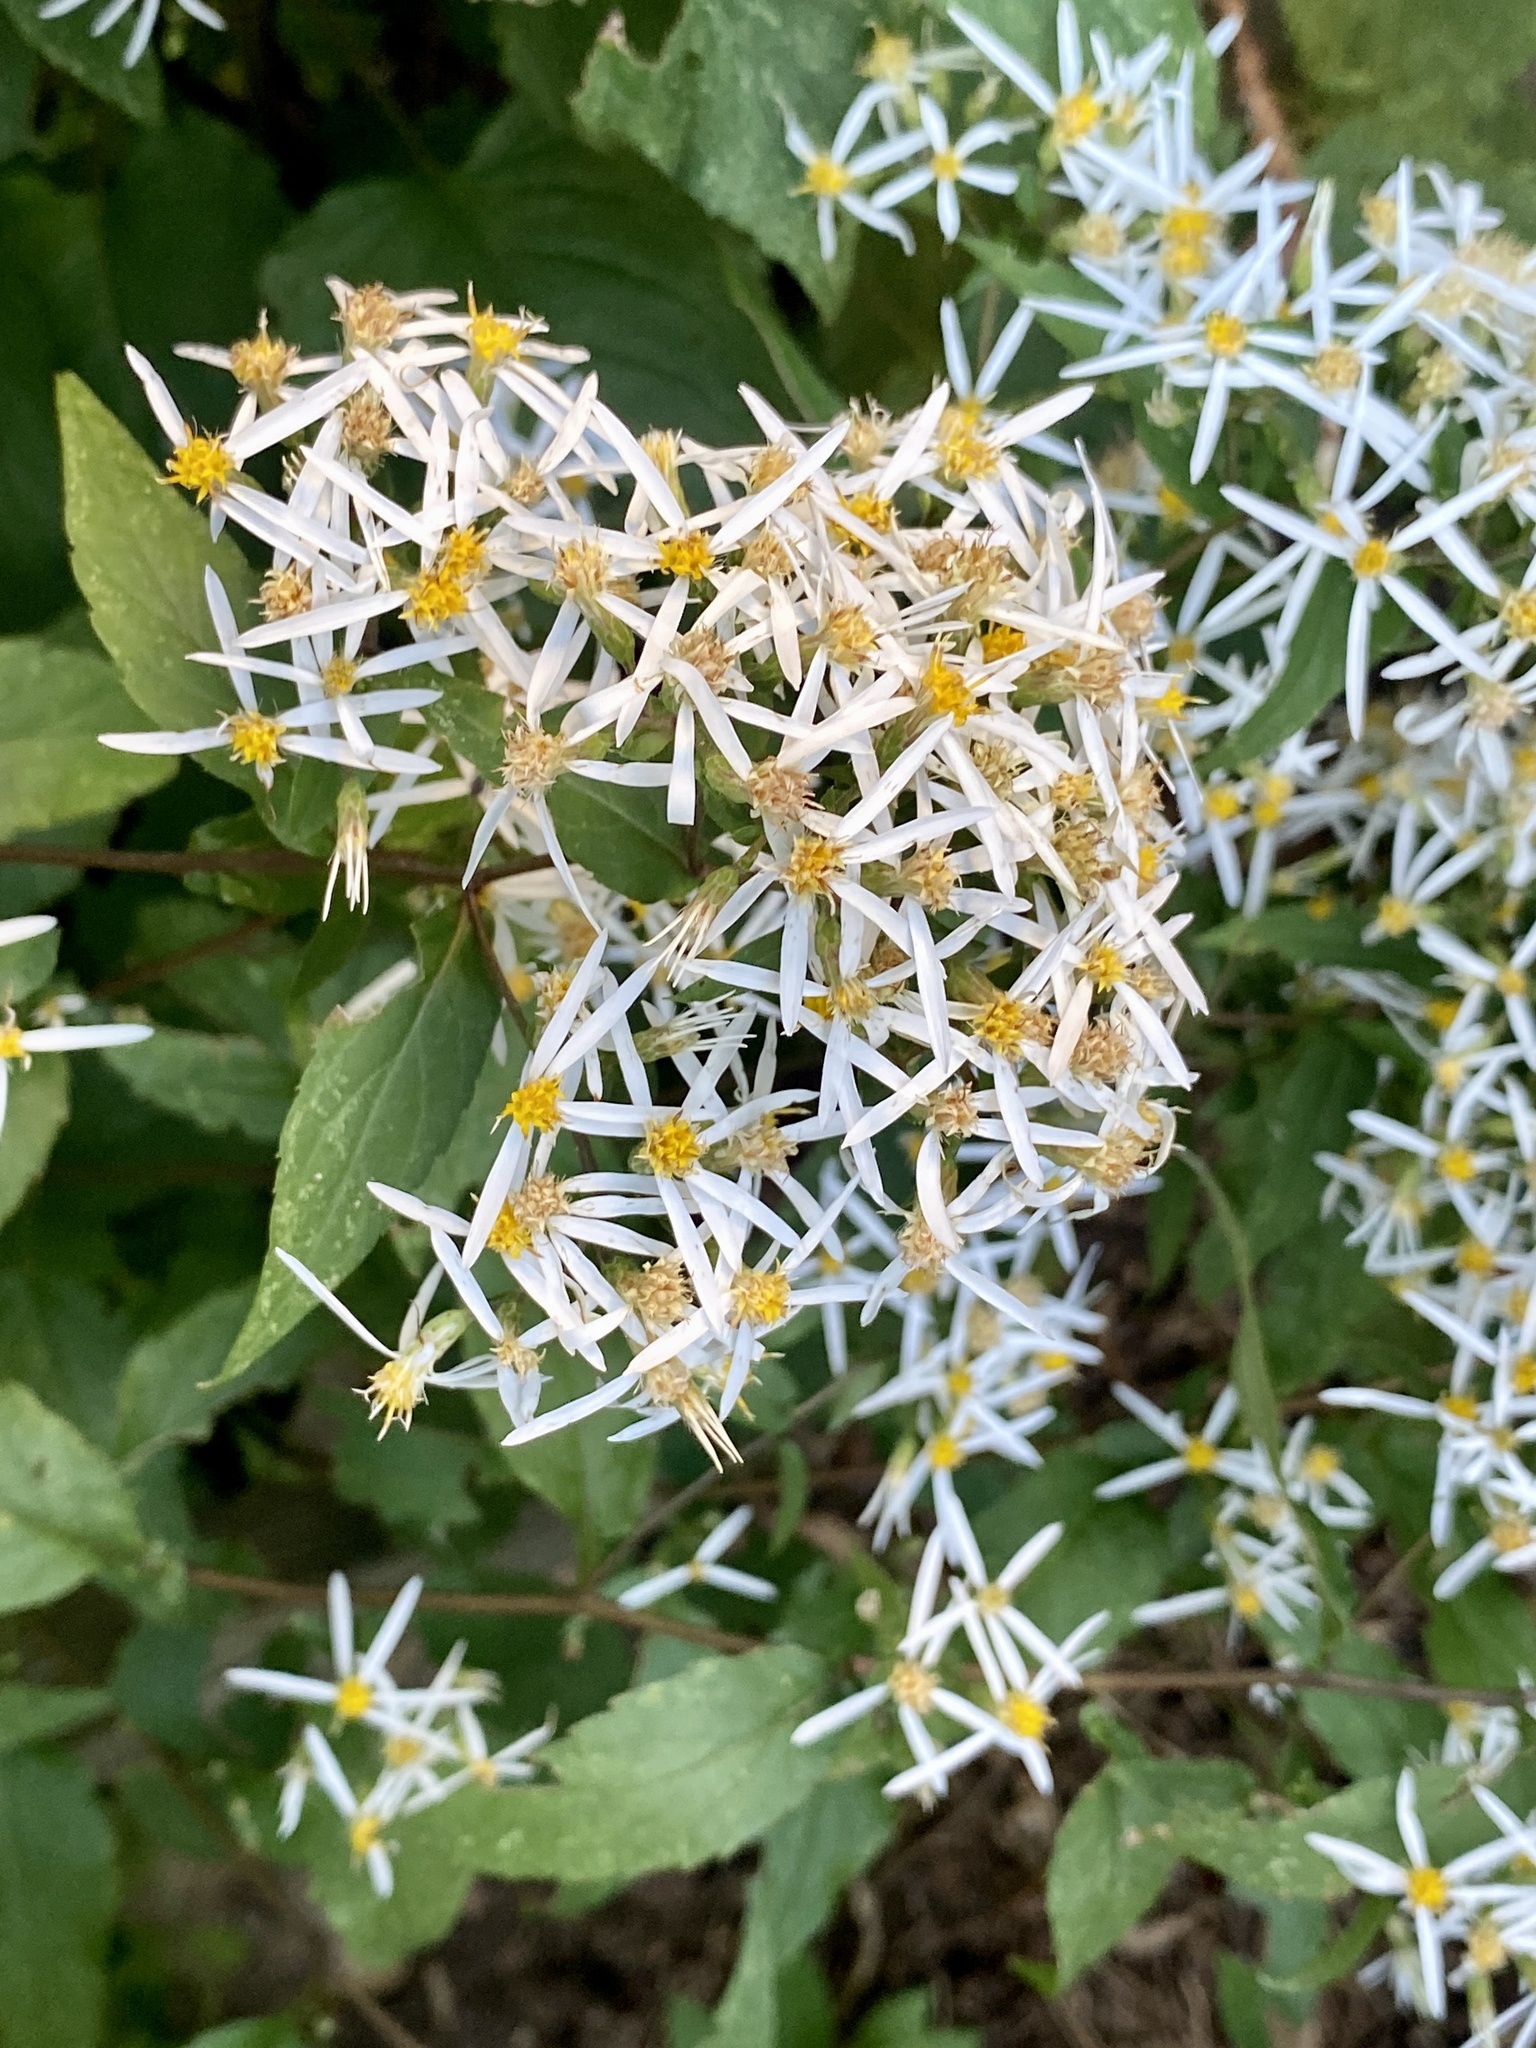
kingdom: Plantae
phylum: Tracheophyta
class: Magnoliopsida
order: Asterales
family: Asteraceae
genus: Eurybia
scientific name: Eurybia divaricata
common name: White wood aster
